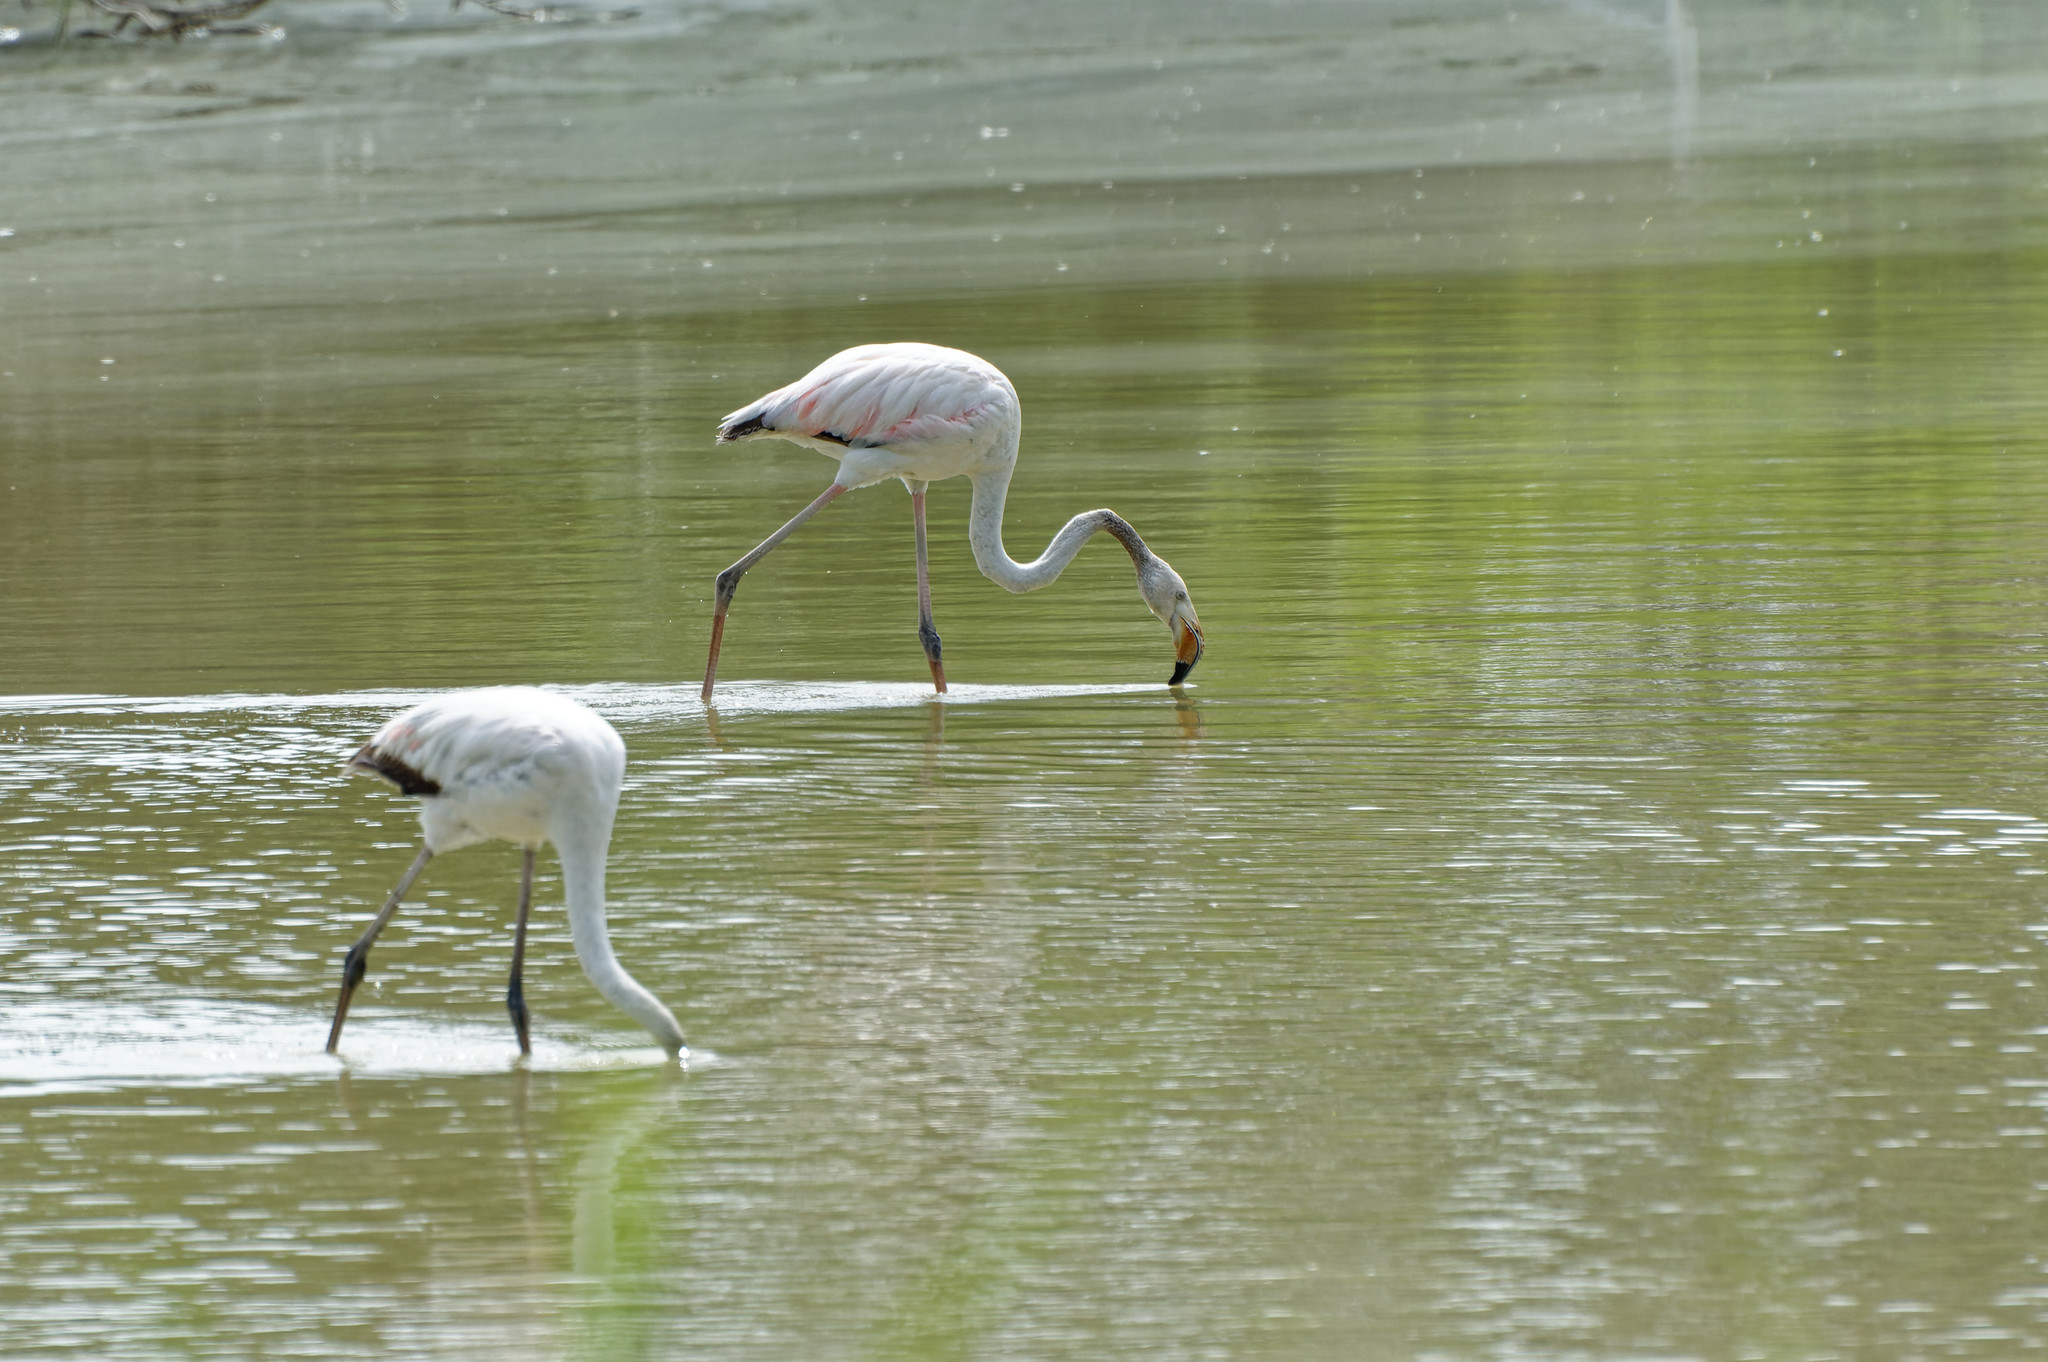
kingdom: Animalia
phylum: Chordata
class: Aves
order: Phoenicopteriformes
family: Phoenicopteridae
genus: Phoenicopterus
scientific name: Phoenicopterus roseus
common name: Greater flamingo
